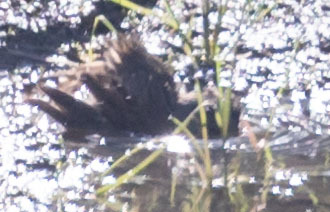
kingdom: Animalia
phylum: Chordata
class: Aves
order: Passeriformes
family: Passerellidae
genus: Melospiza
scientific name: Melospiza lincolnii
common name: Lincoln's sparrow
